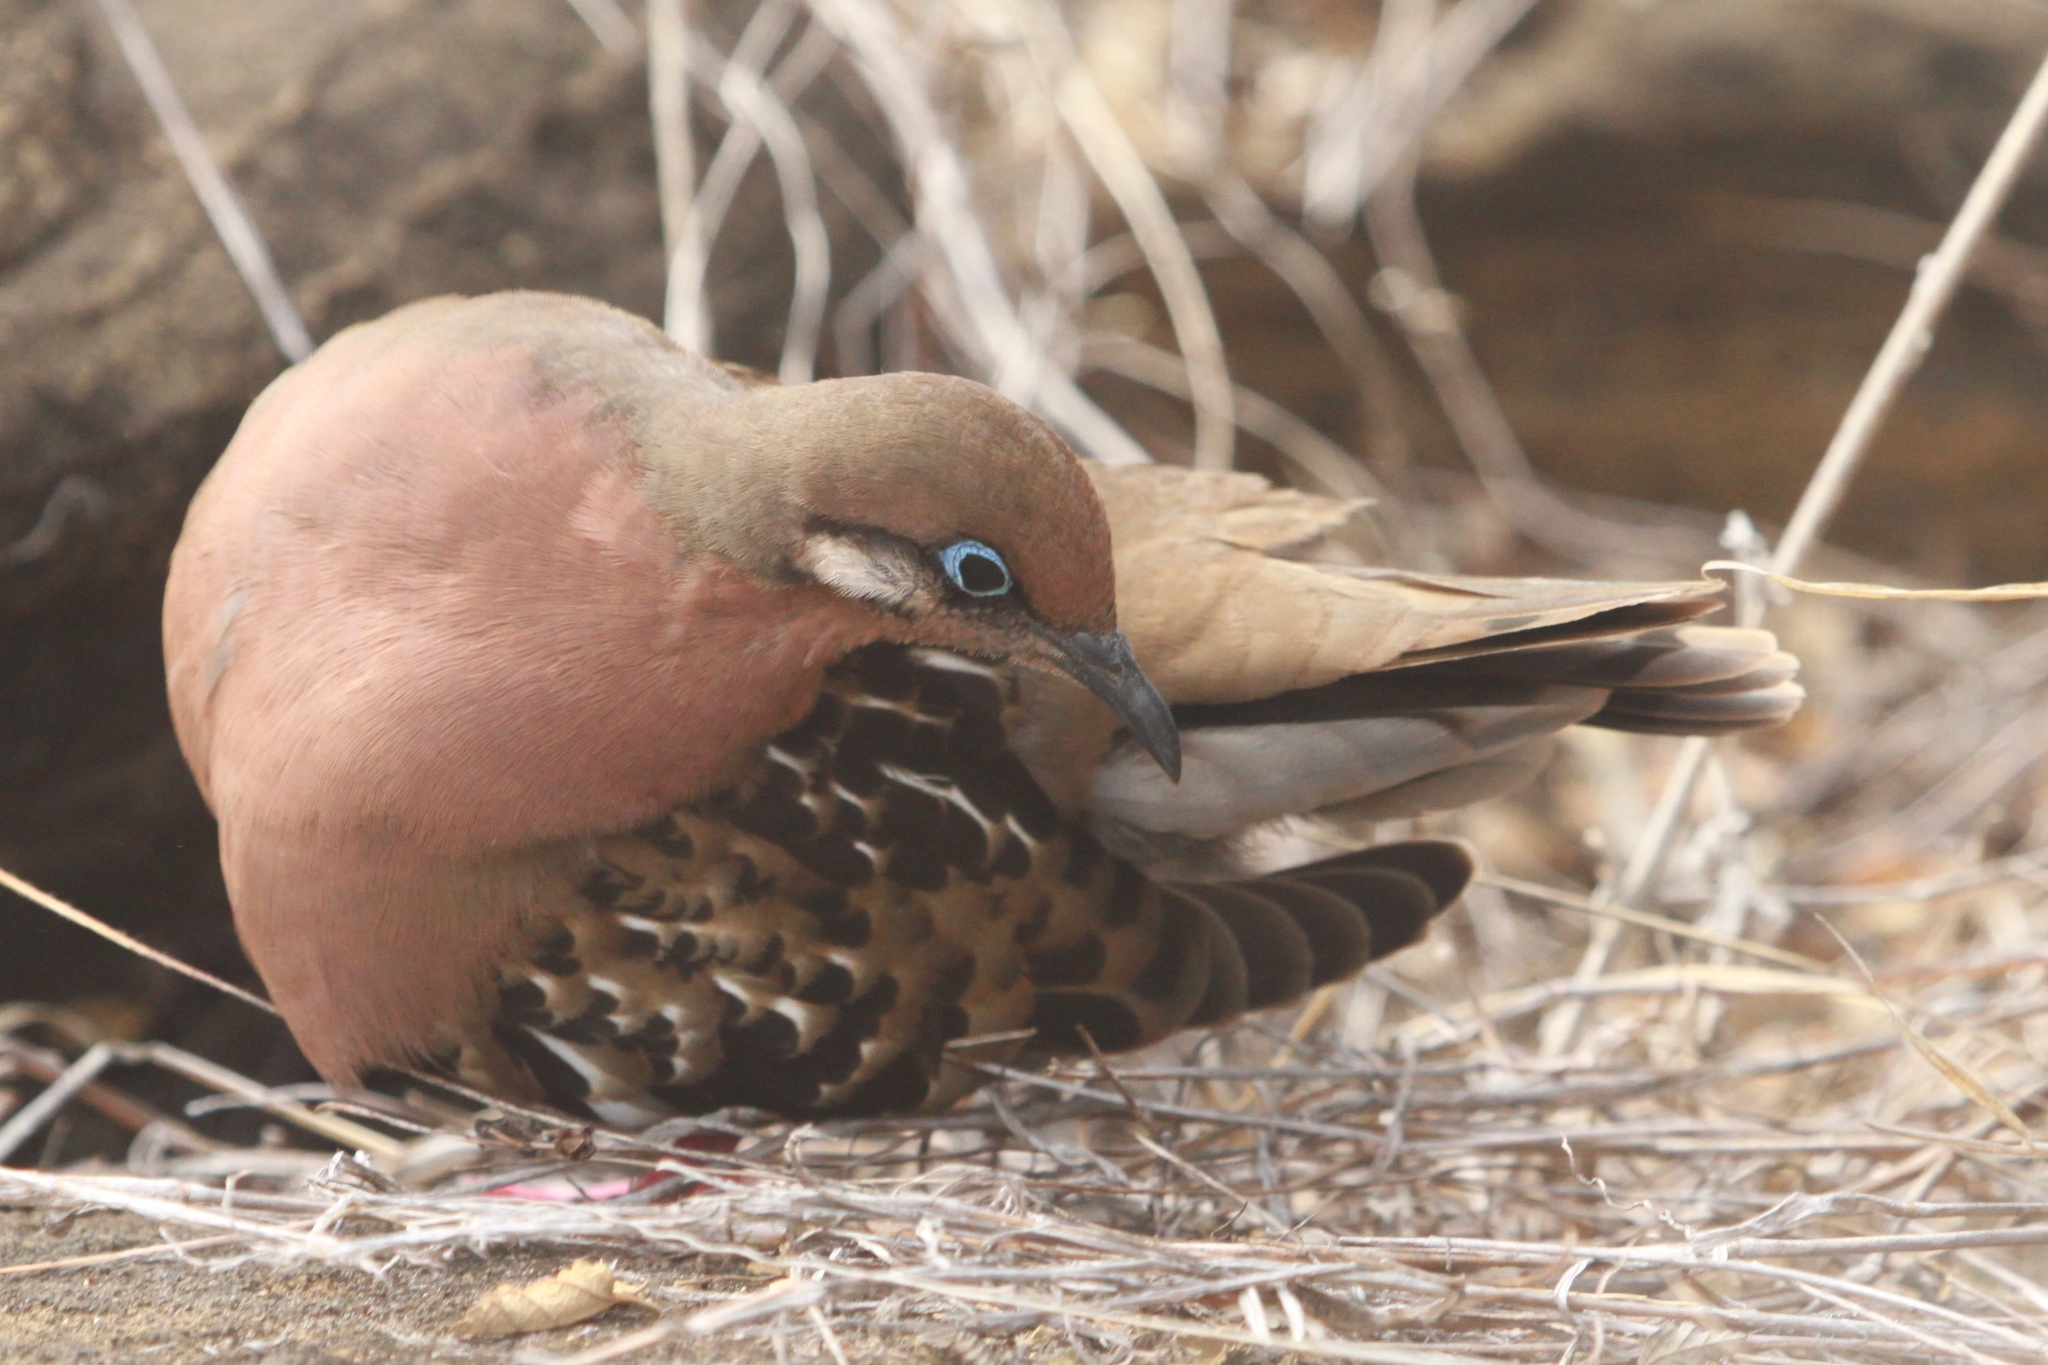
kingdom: Animalia
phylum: Chordata
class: Aves
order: Columbiformes
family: Columbidae
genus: Zenaida
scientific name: Zenaida galapagoensis
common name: Galapagos dove
